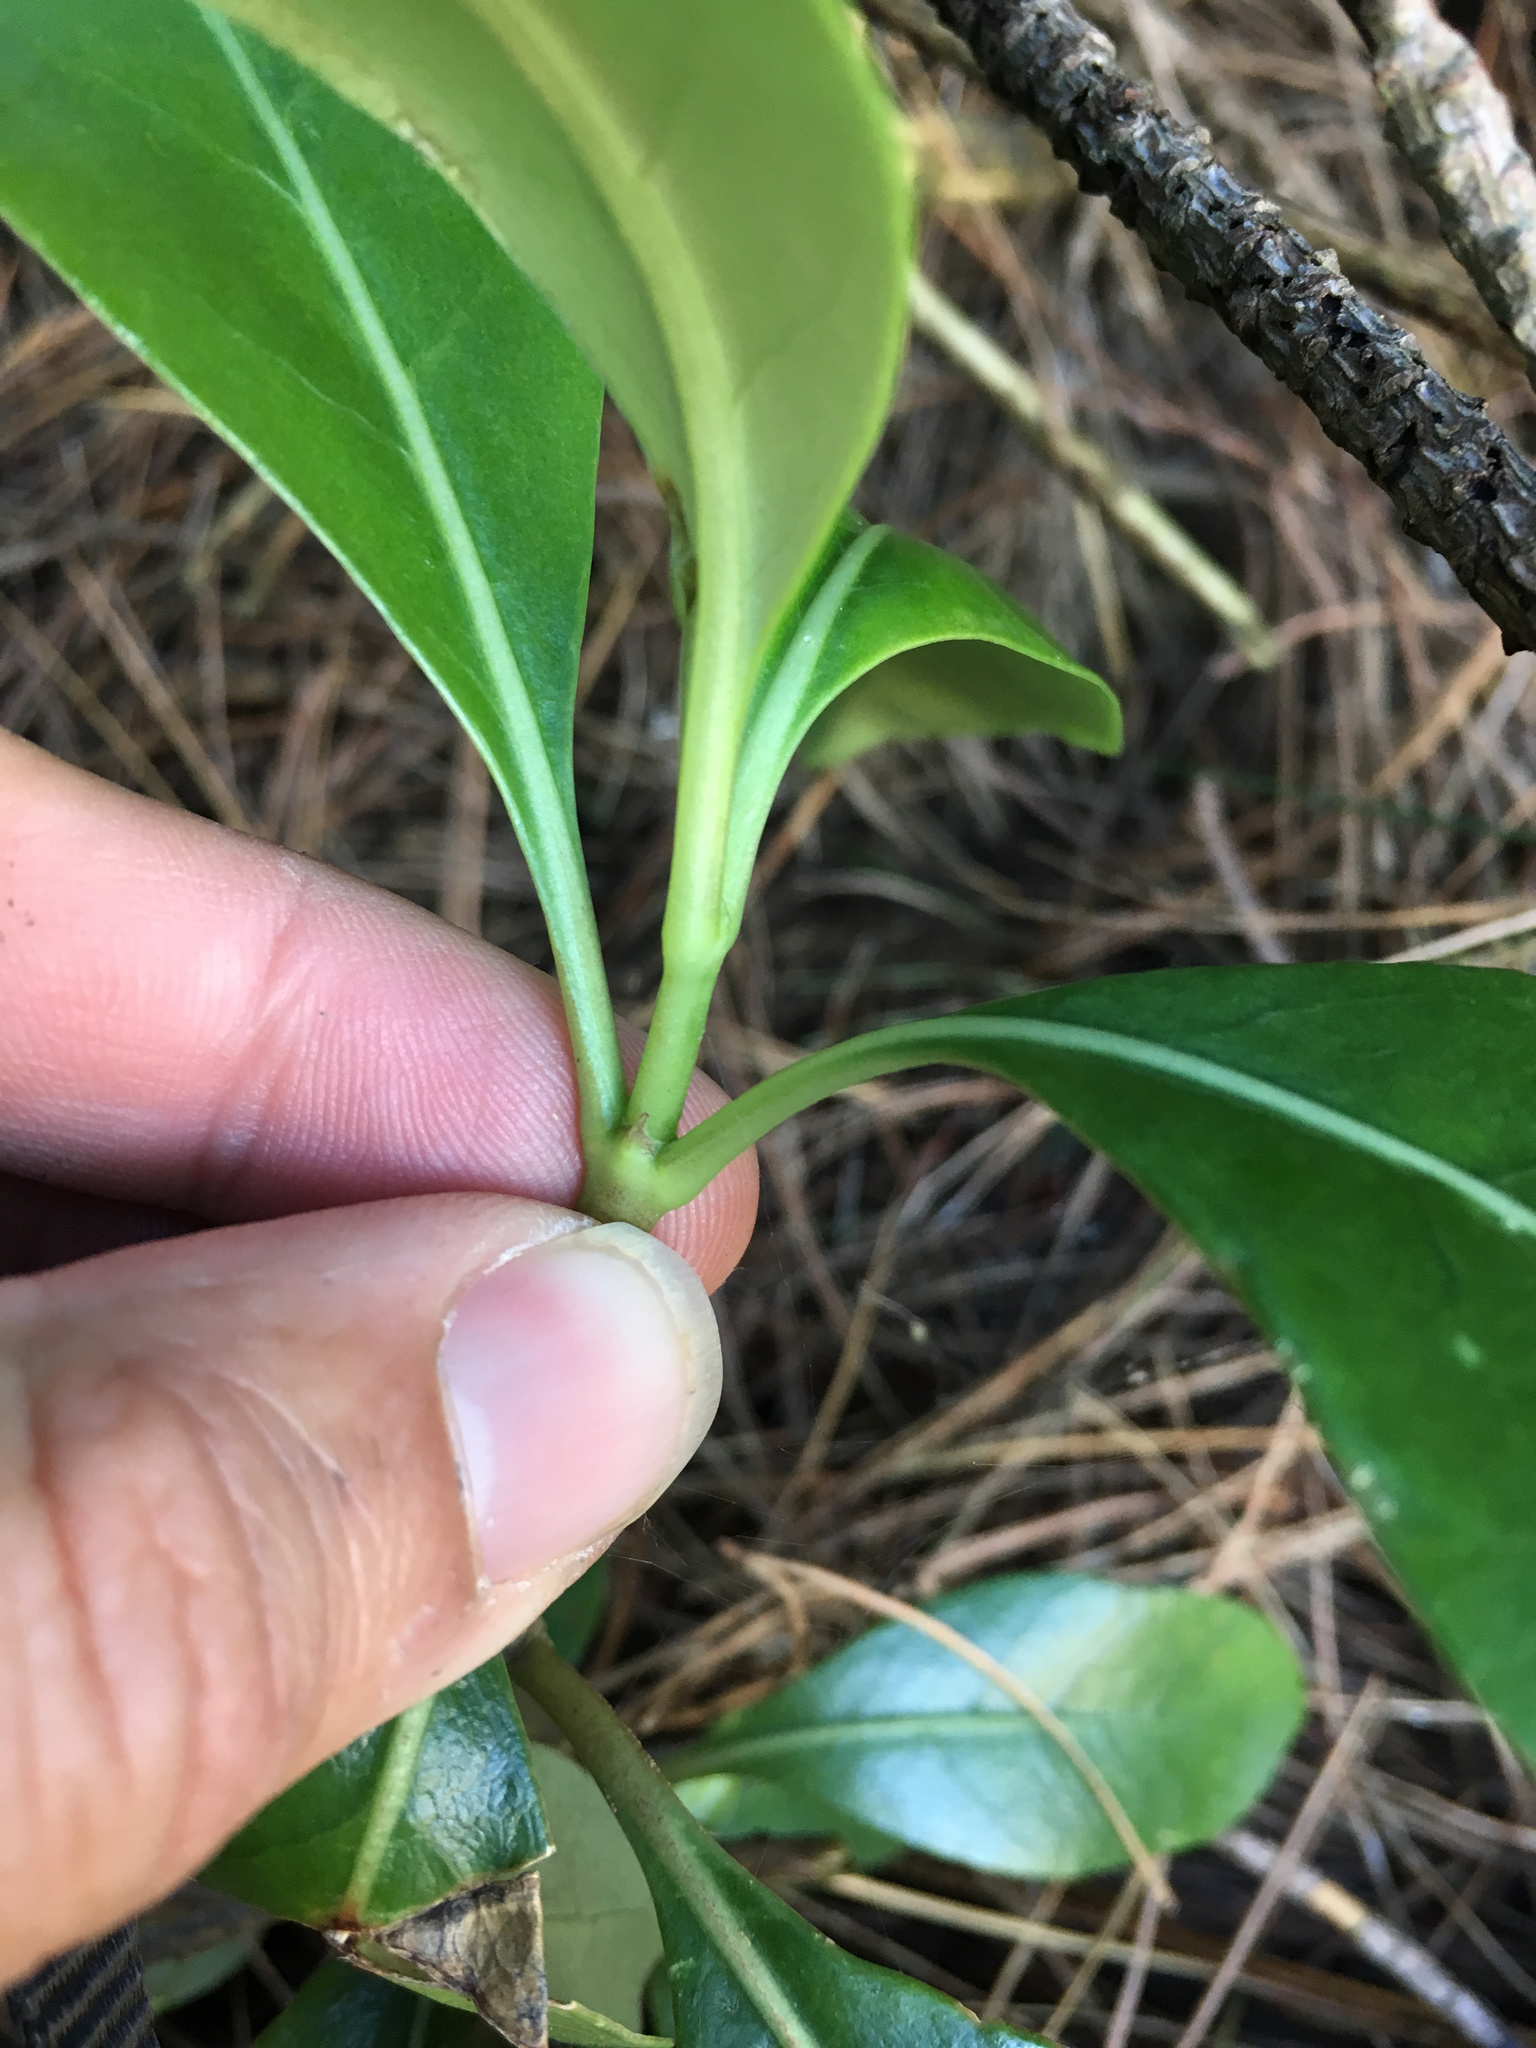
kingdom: Plantae
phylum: Tracheophyta
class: Magnoliopsida
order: Gentianales
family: Rubiaceae
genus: Coprosma
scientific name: Coprosma lucida
